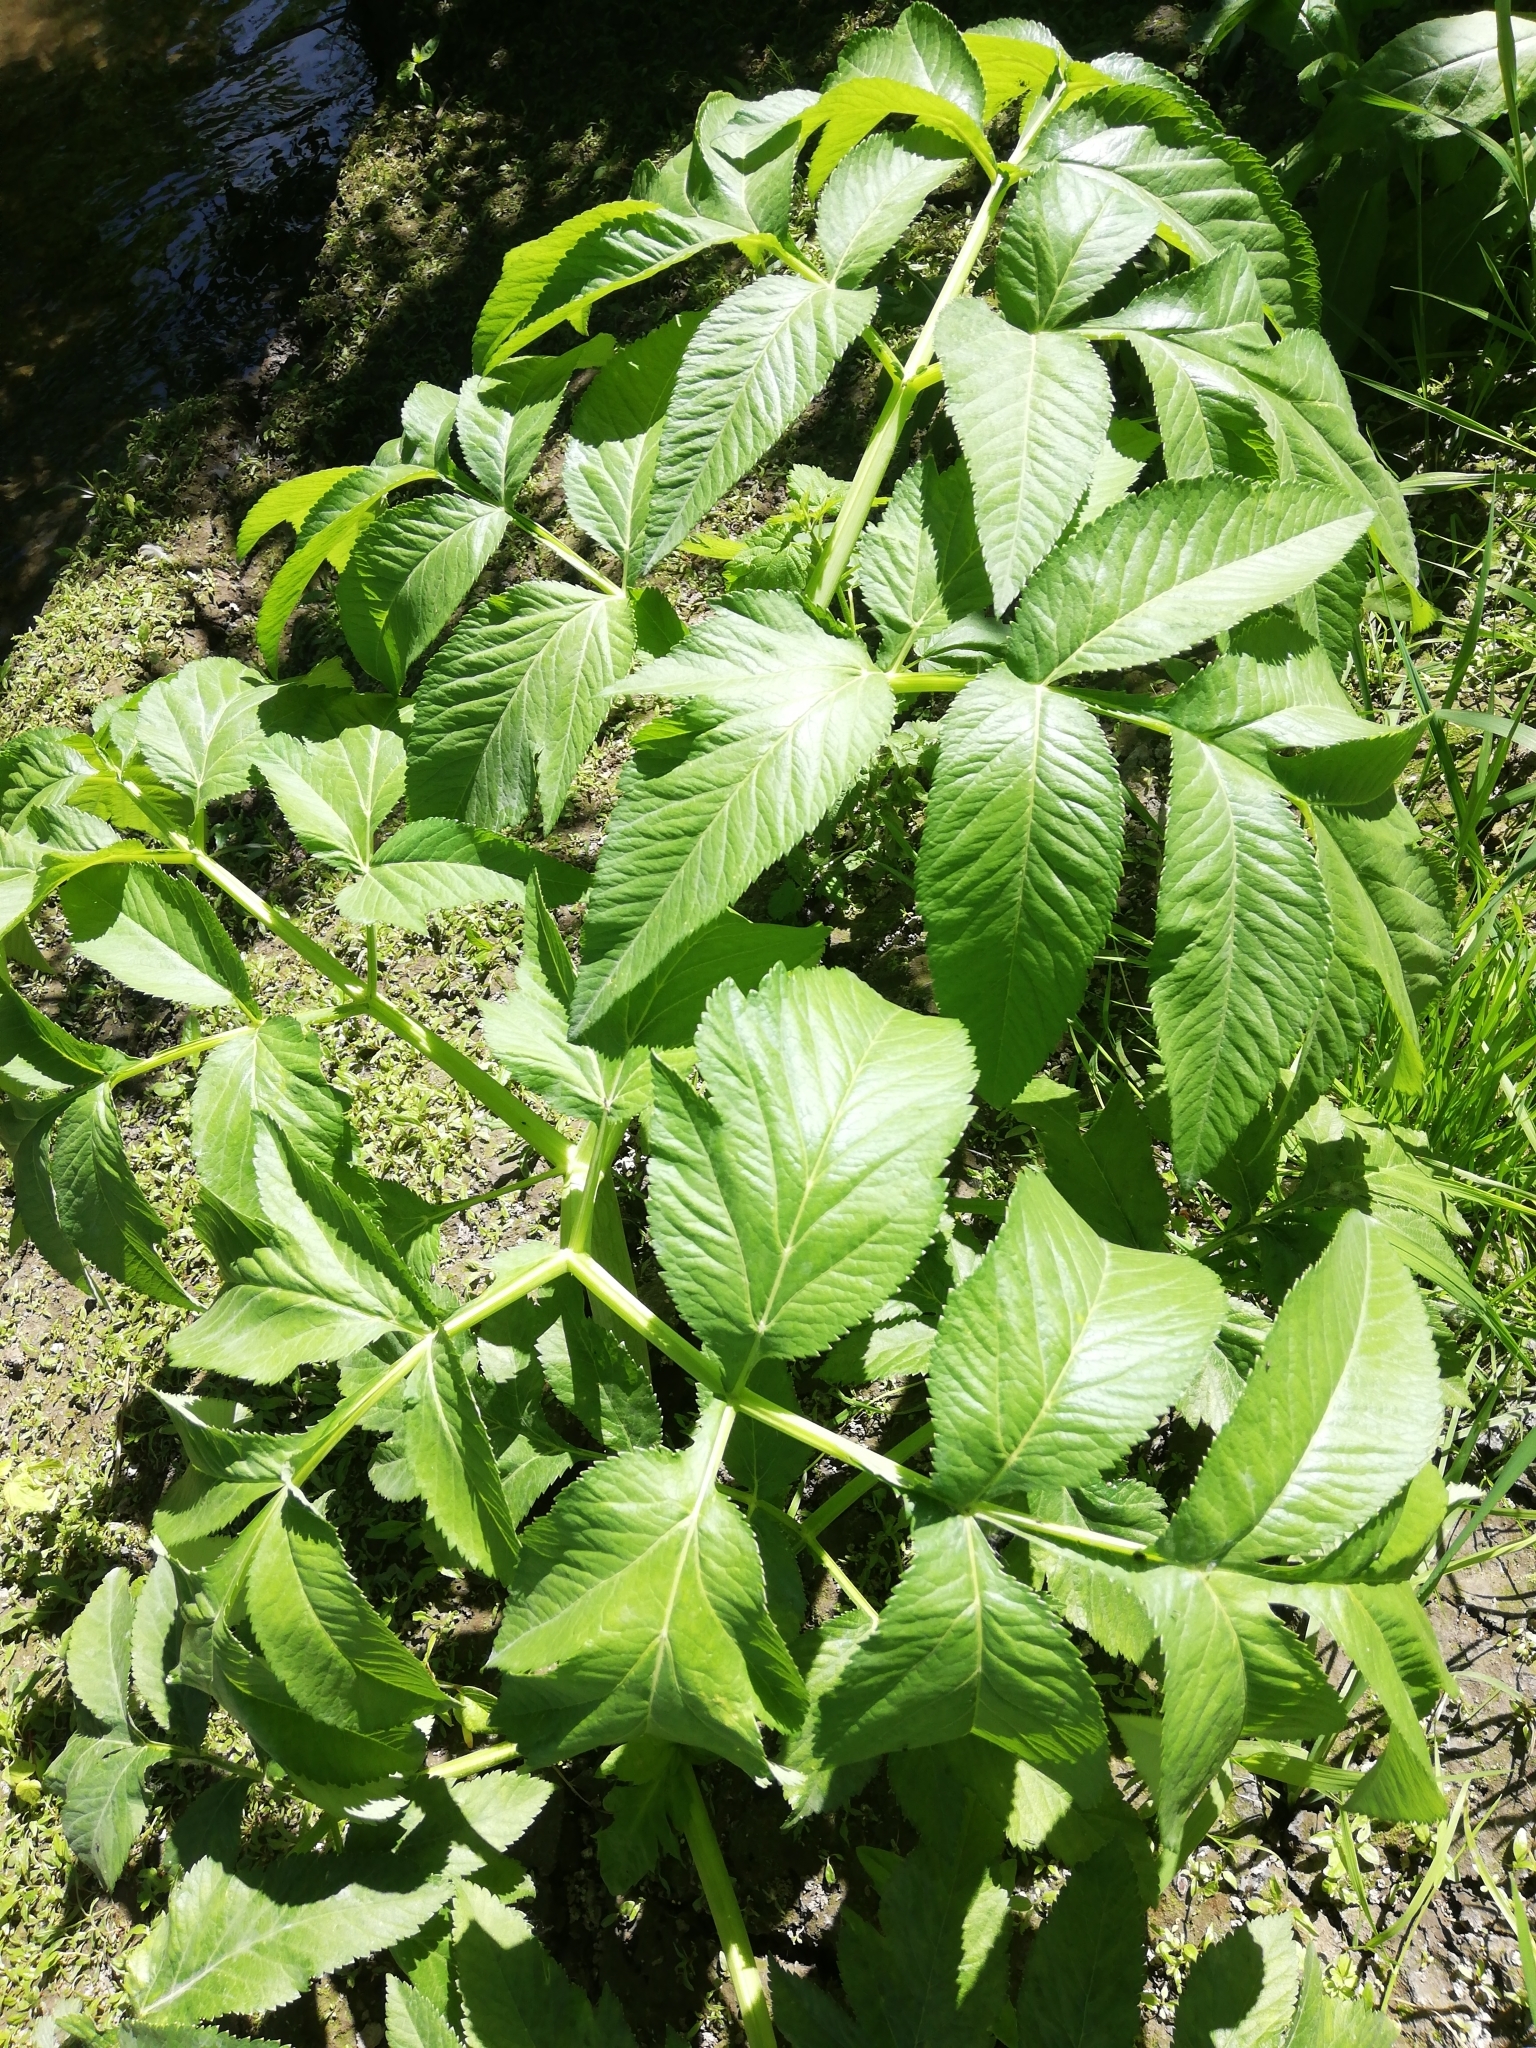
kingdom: Plantae
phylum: Tracheophyta
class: Magnoliopsida
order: Apiales
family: Apiaceae
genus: Angelica
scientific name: Angelica decurrens
